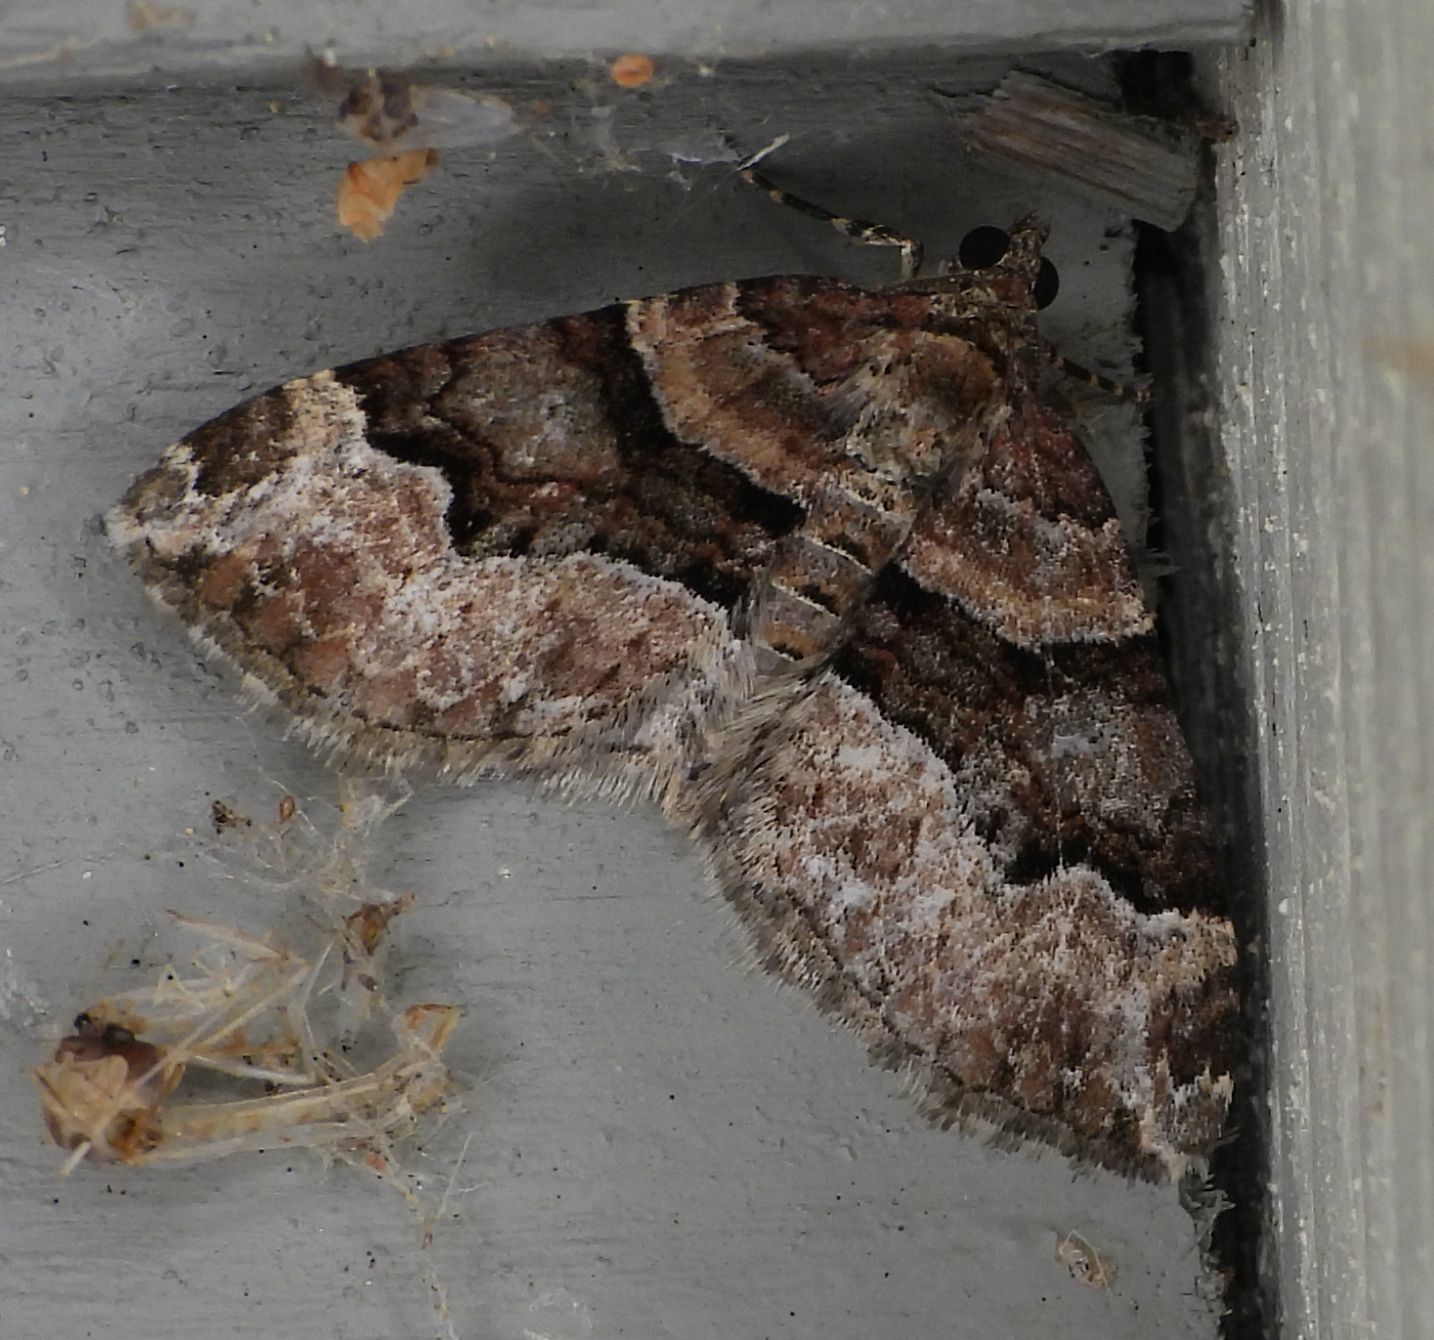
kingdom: Animalia
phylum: Arthropoda
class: Insecta
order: Lepidoptera
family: Geometridae
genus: Xanthorhoe
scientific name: Xanthorhoe lacustrata
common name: Toothed brown carpet
